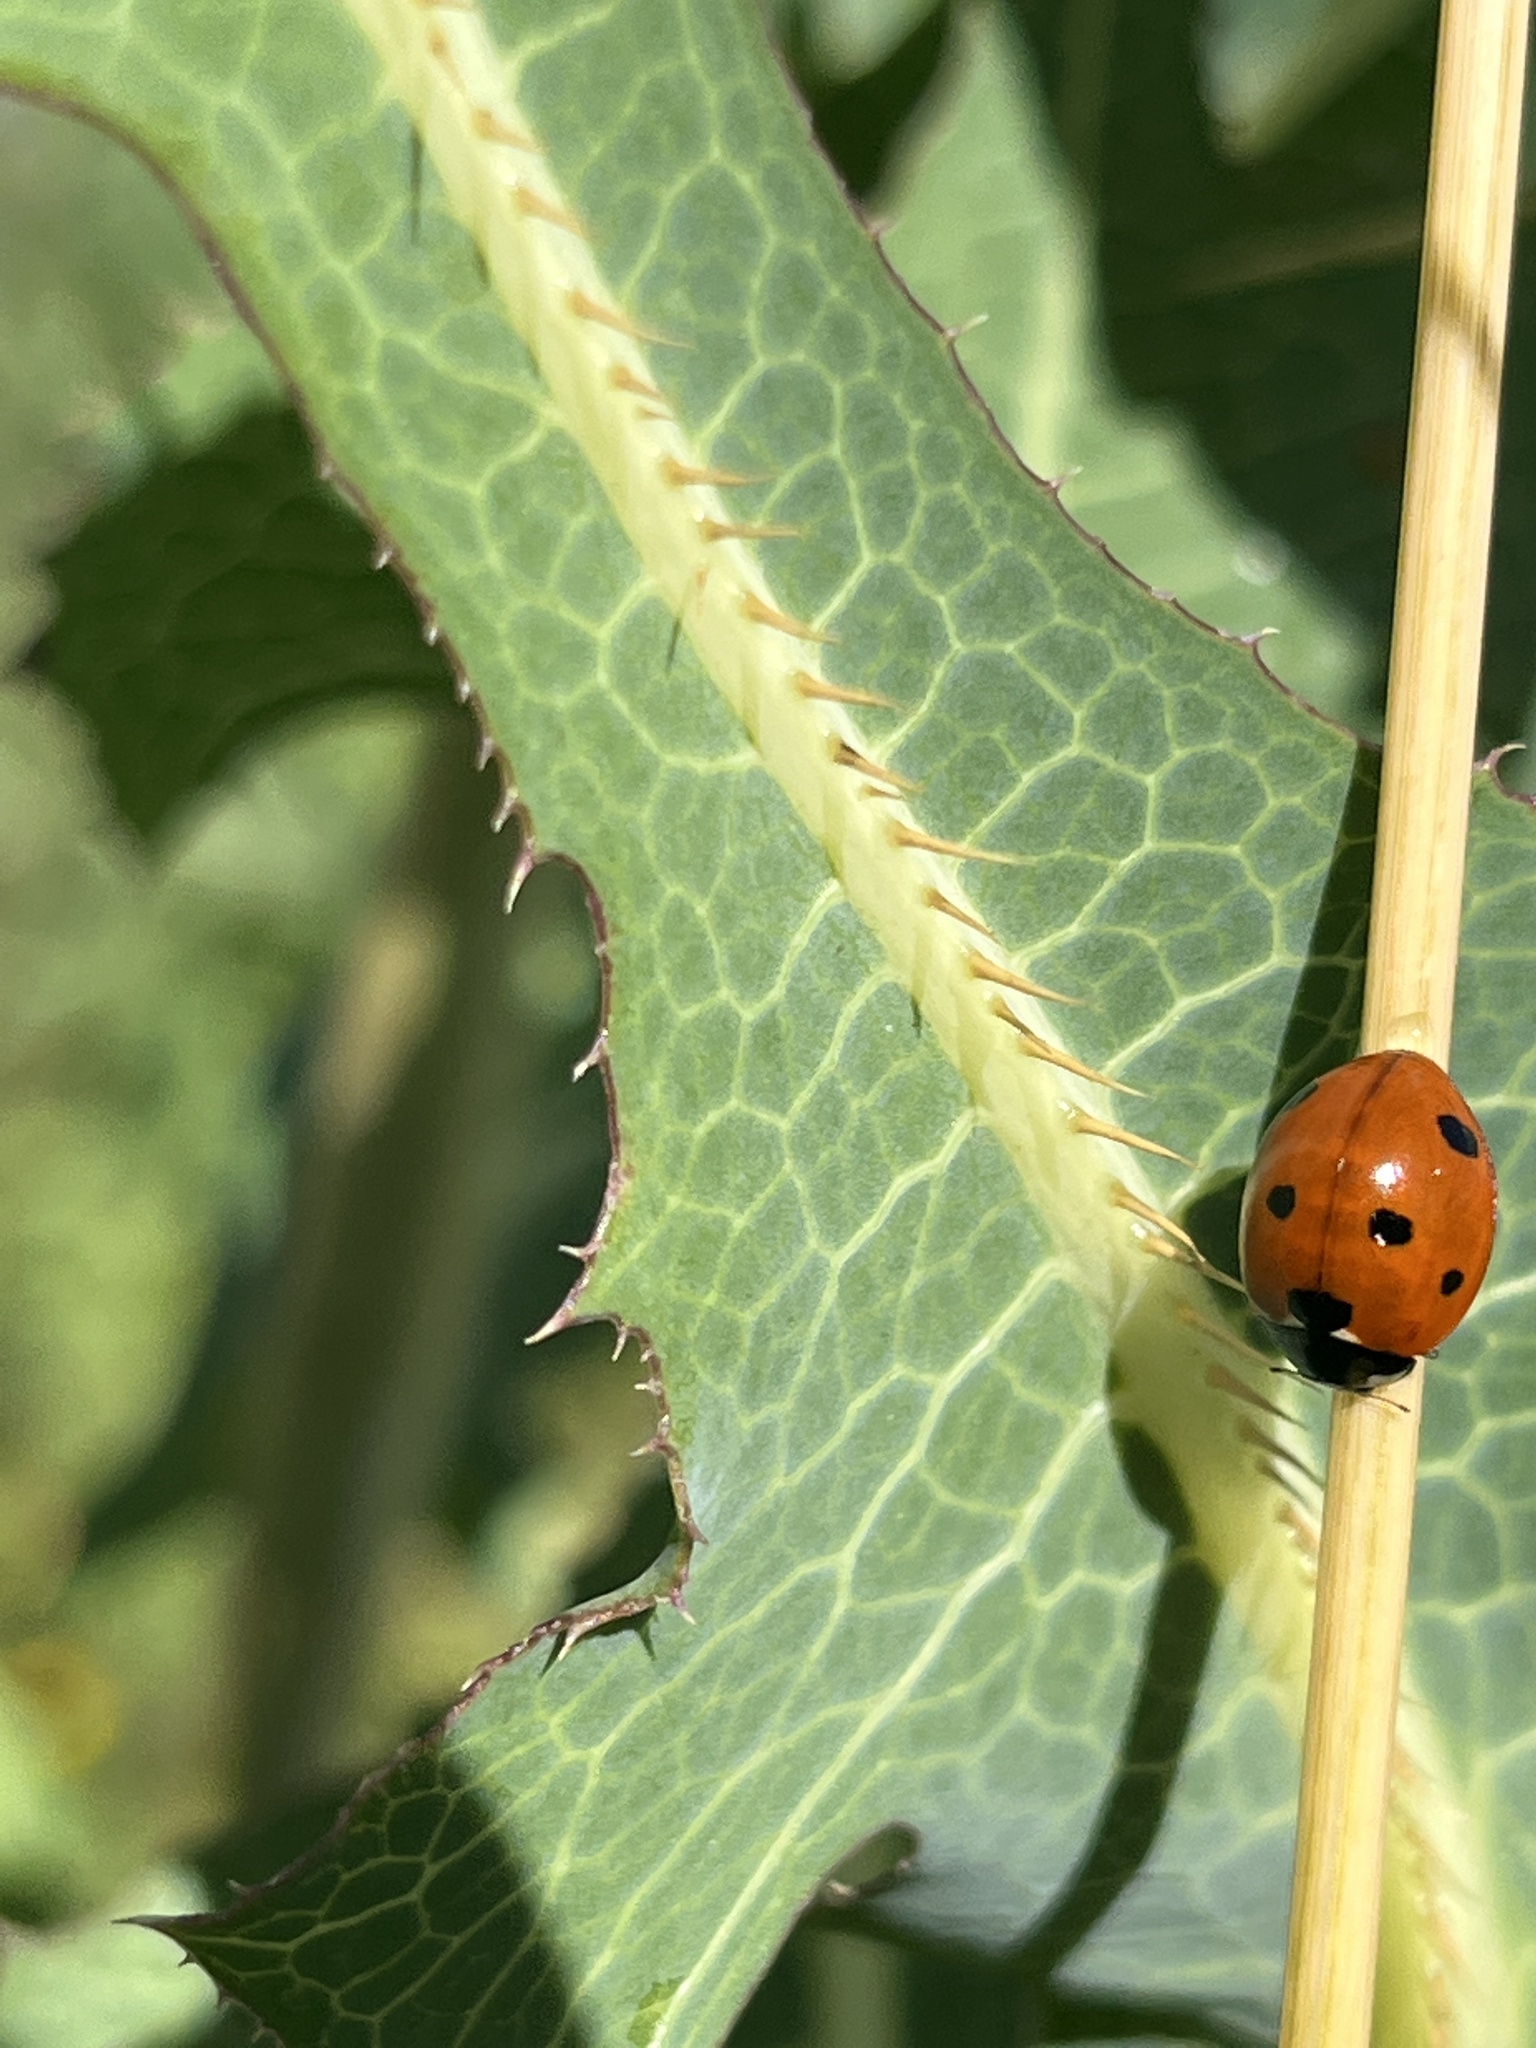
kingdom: Animalia
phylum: Arthropoda
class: Insecta
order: Coleoptera
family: Coccinellidae
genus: Coccinella
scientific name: Coccinella septempunctata
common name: Sevenspotted lady beetle
